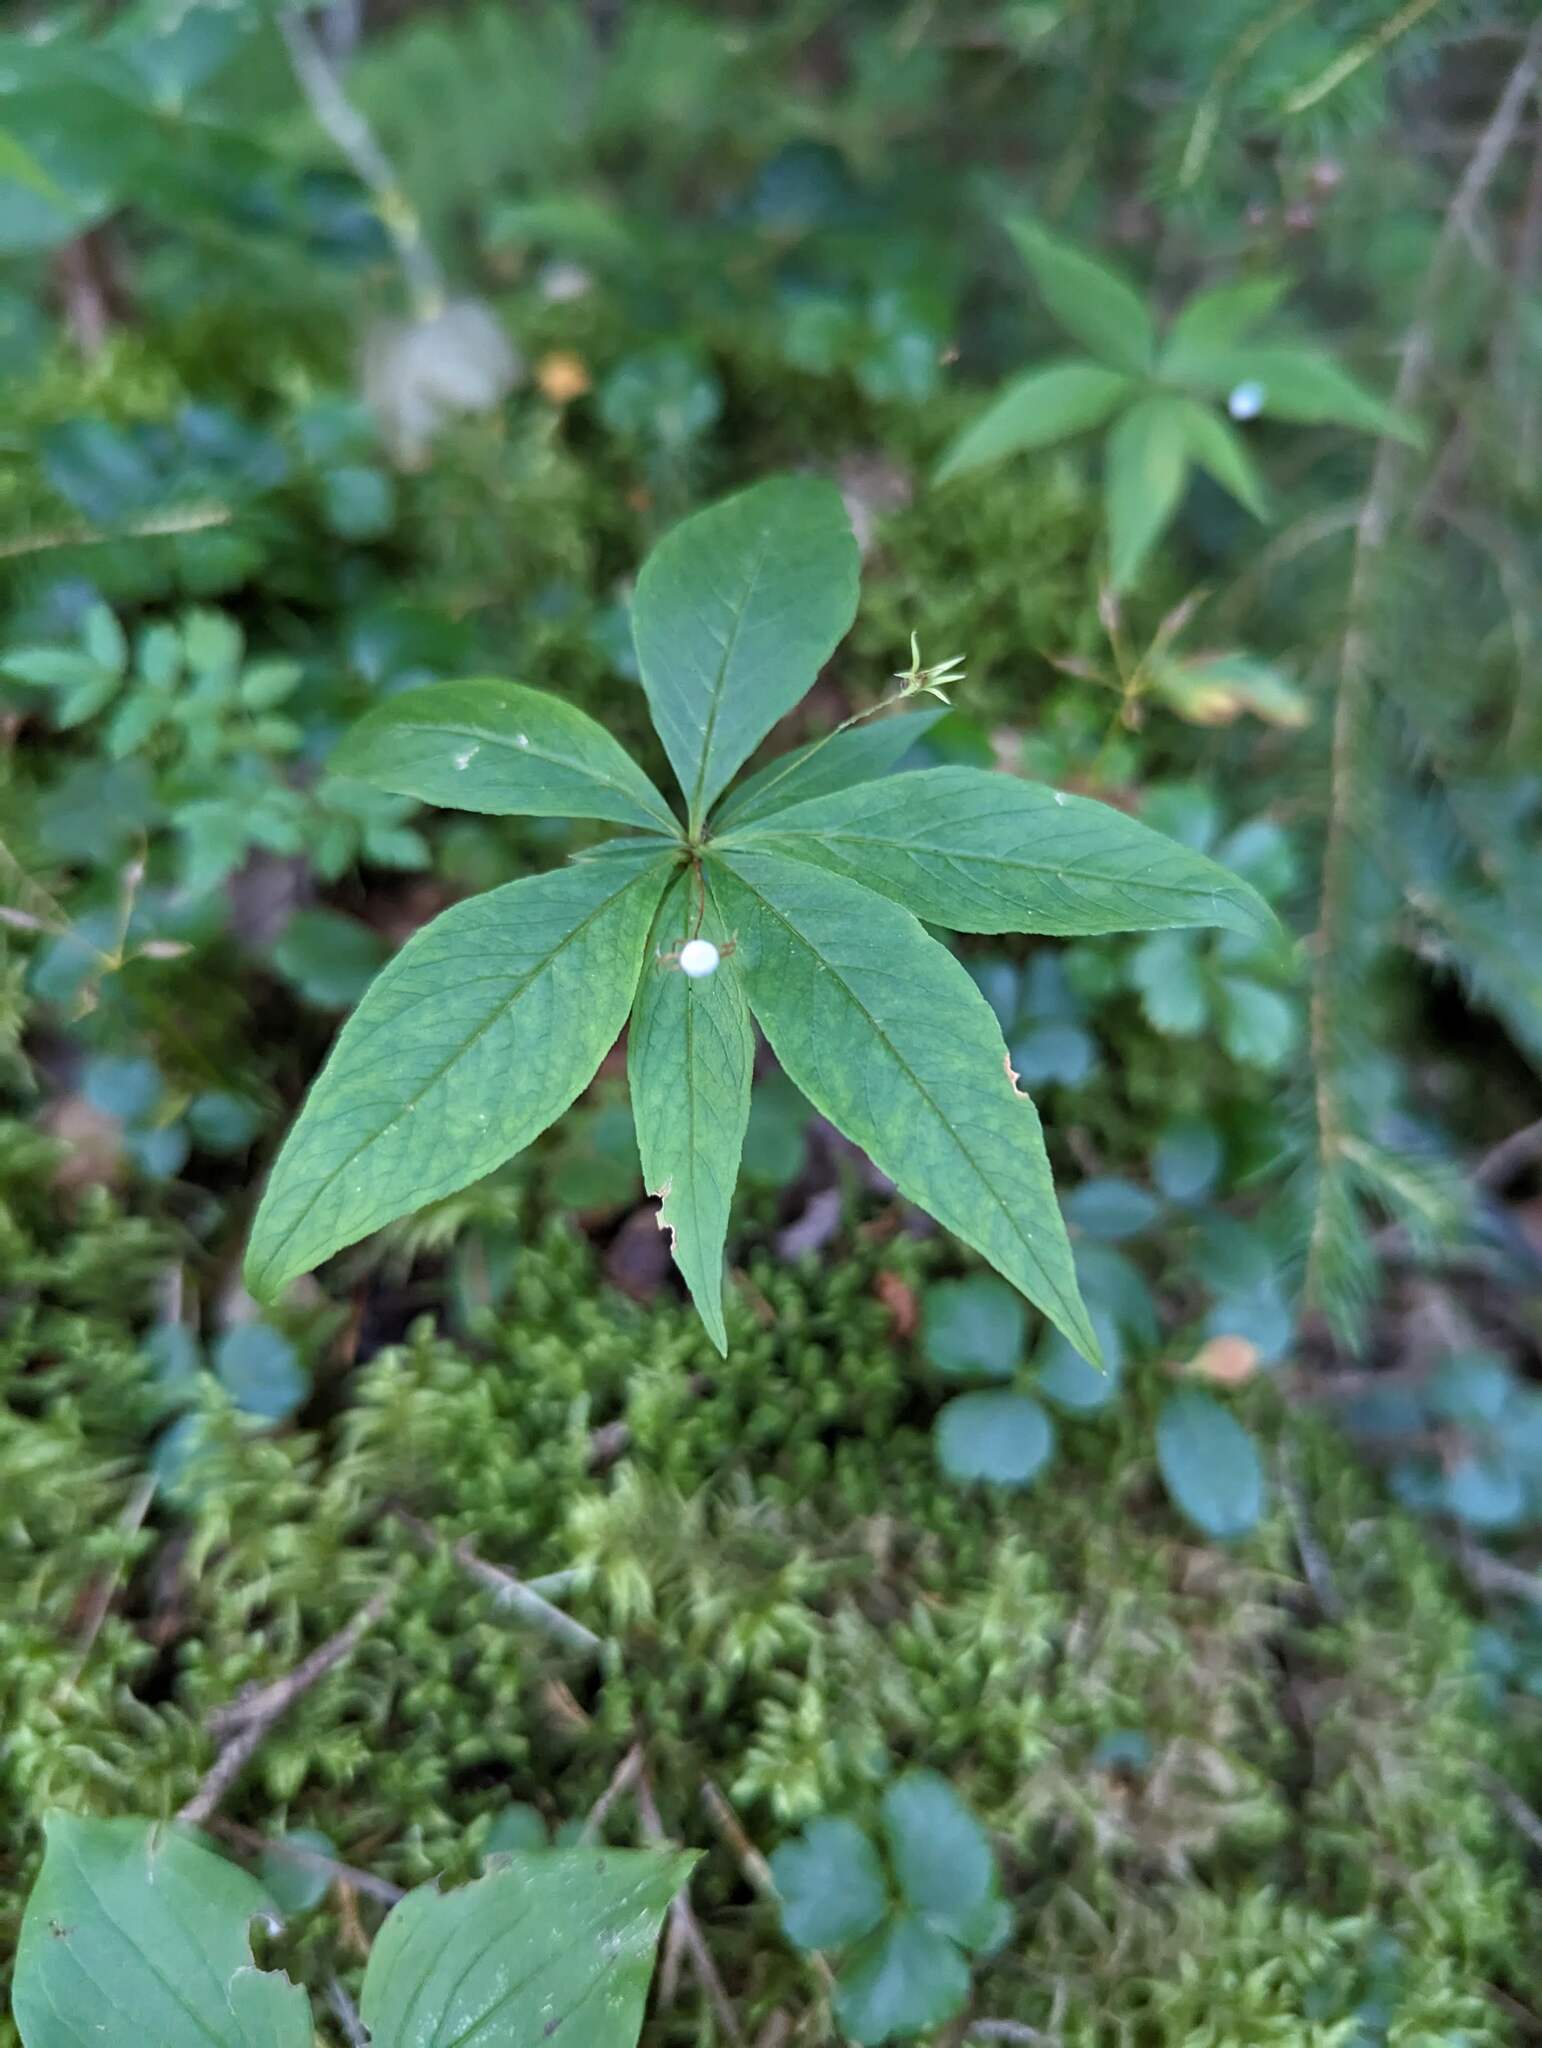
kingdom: Plantae
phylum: Tracheophyta
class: Magnoliopsida
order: Ericales
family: Primulaceae
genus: Lysimachia
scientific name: Lysimachia borealis
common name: American starflower
